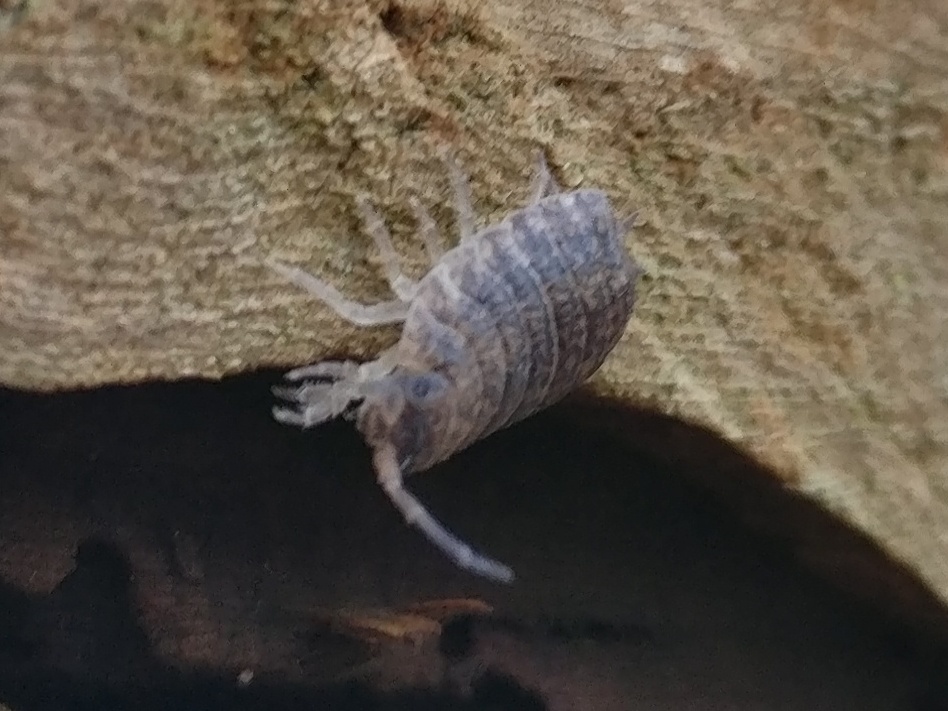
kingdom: Animalia
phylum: Arthropoda
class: Malacostraca
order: Isopoda
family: Porcellionidae
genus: Porcellio
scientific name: Porcellio scaber
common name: Common rough woodlouse
